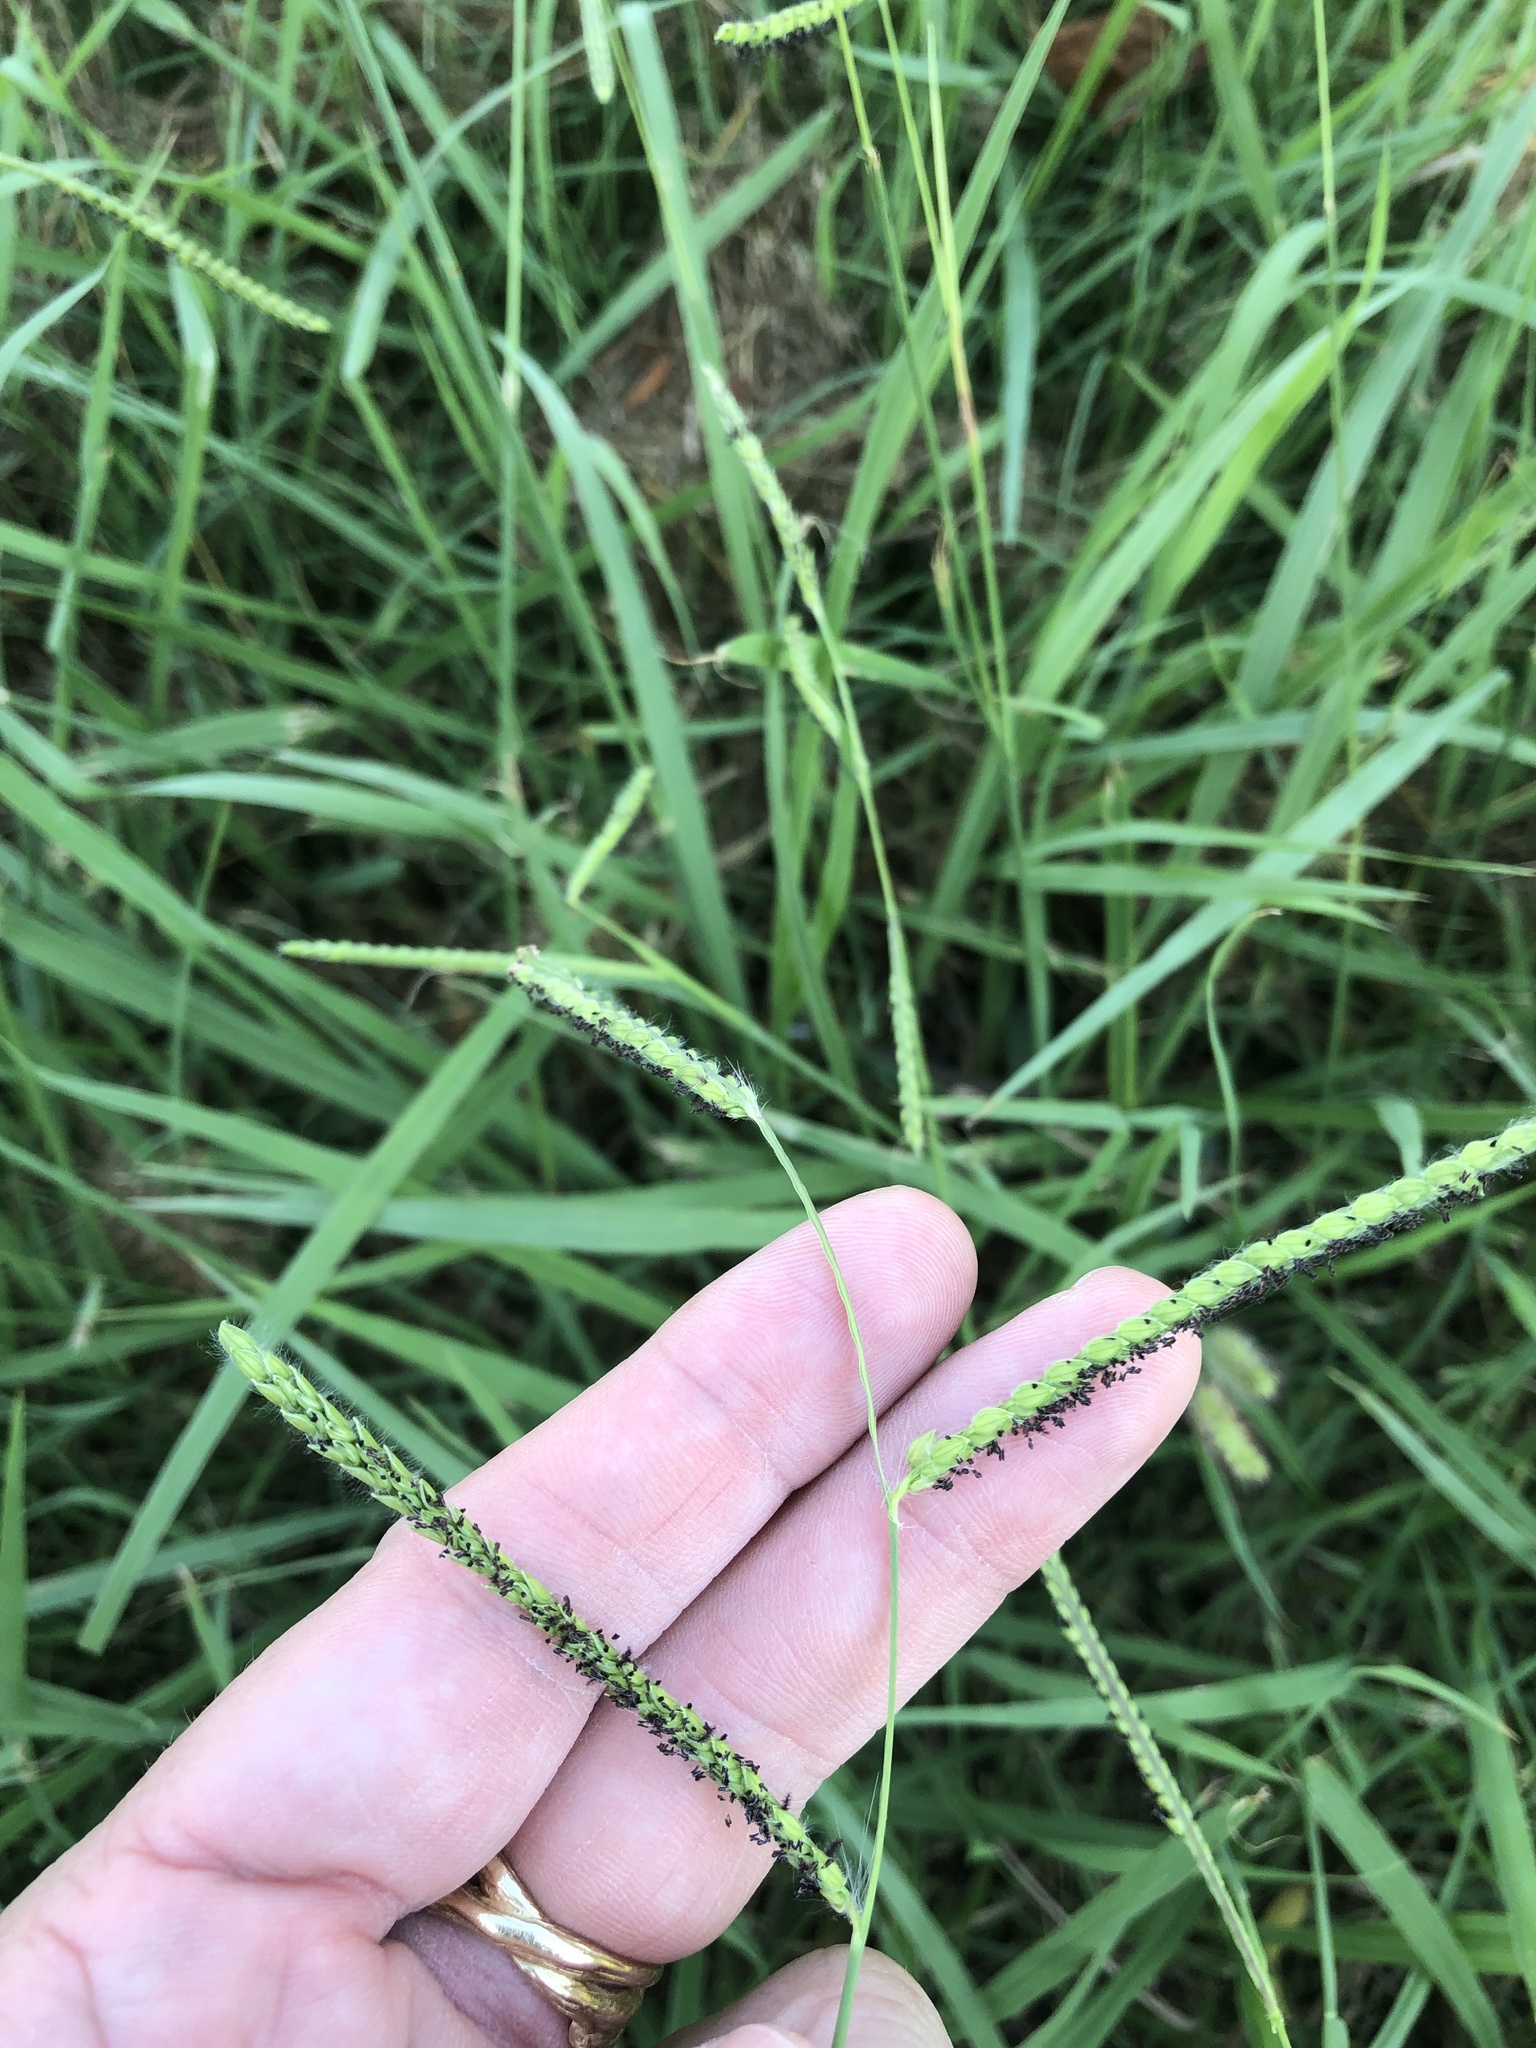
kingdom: Plantae
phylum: Tracheophyta
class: Liliopsida
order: Poales
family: Poaceae
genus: Paspalum
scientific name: Paspalum dilatatum
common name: Dallisgrass
